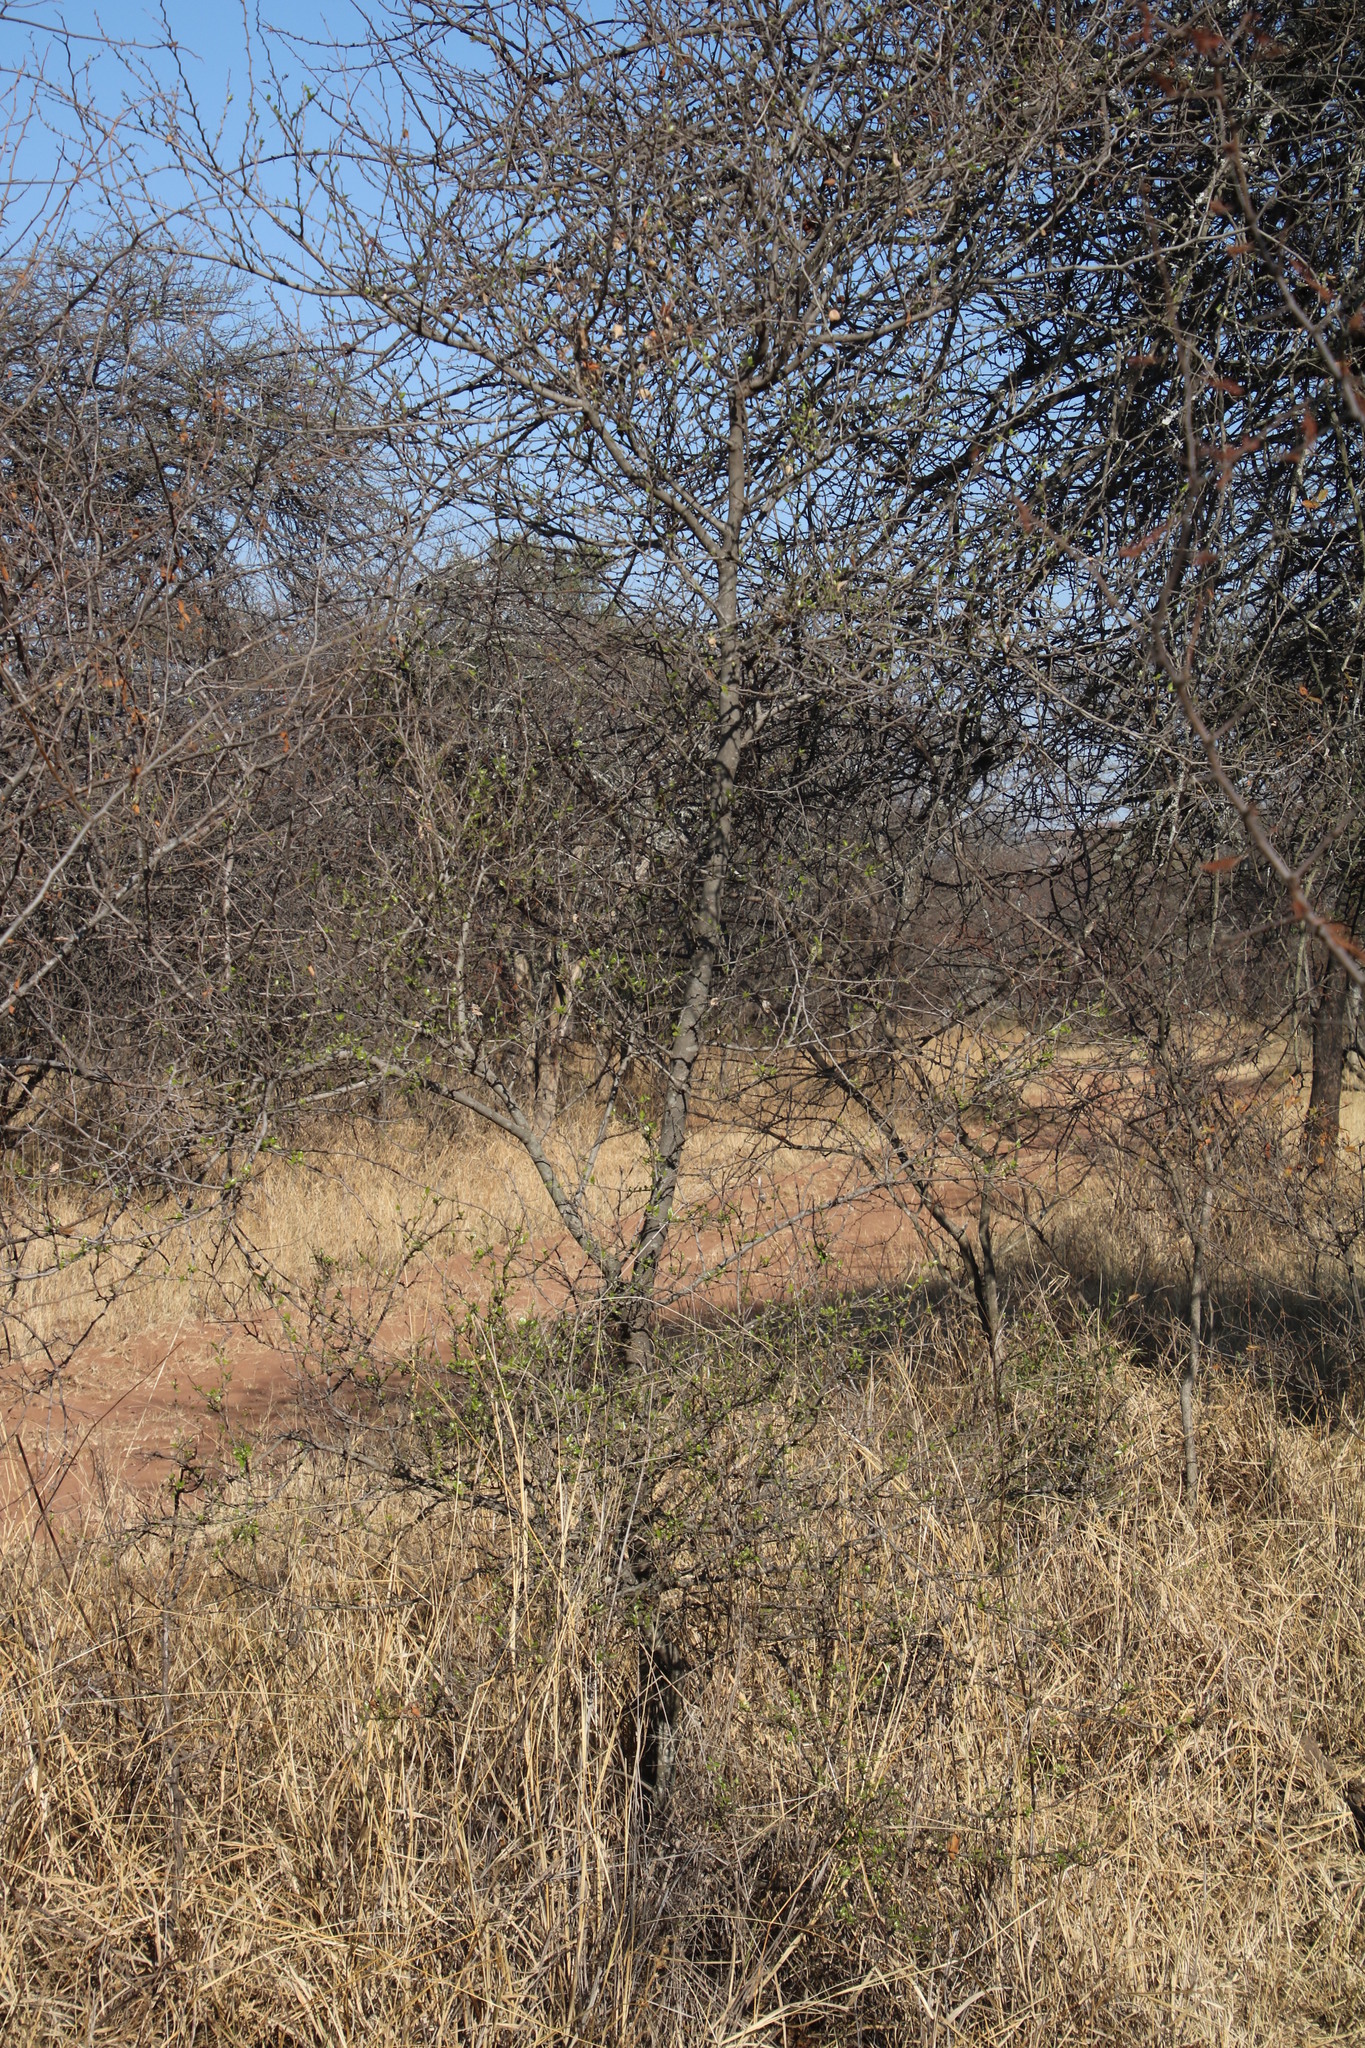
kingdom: Plantae
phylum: Tracheophyta
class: Magnoliopsida
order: Rosales
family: Rhamnaceae
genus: Ziziphus
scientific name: Ziziphus mucronata
